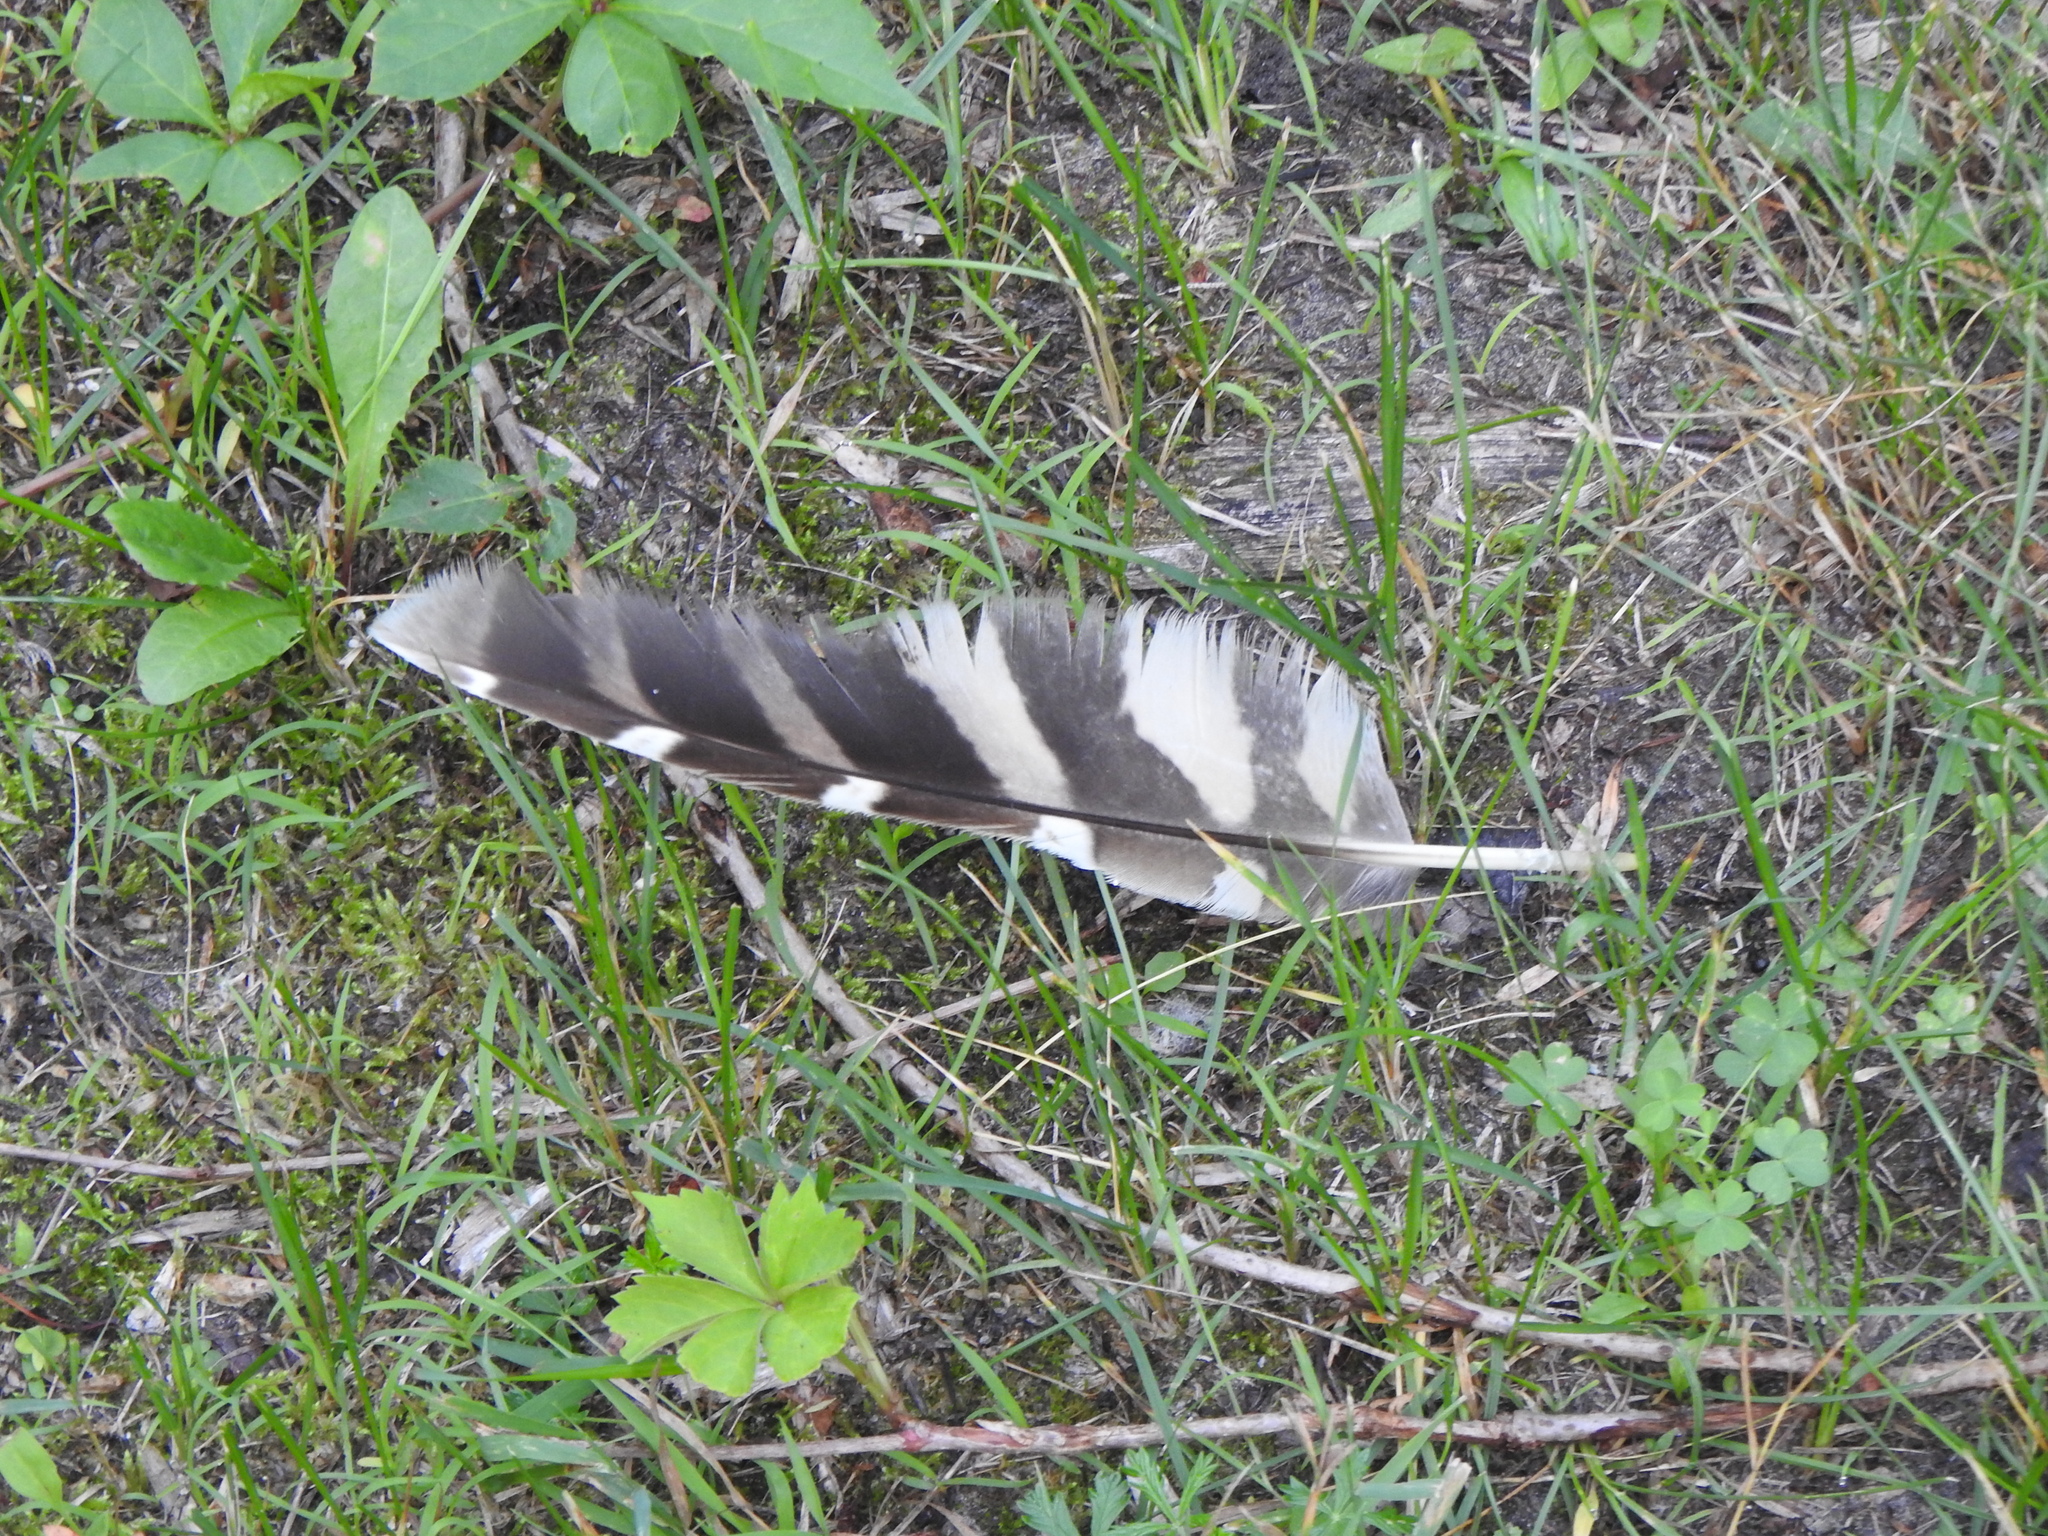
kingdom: Animalia
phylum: Chordata
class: Aves
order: Strigiformes
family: Strigidae
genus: Strix
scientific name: Strix varia
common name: Barred owl
